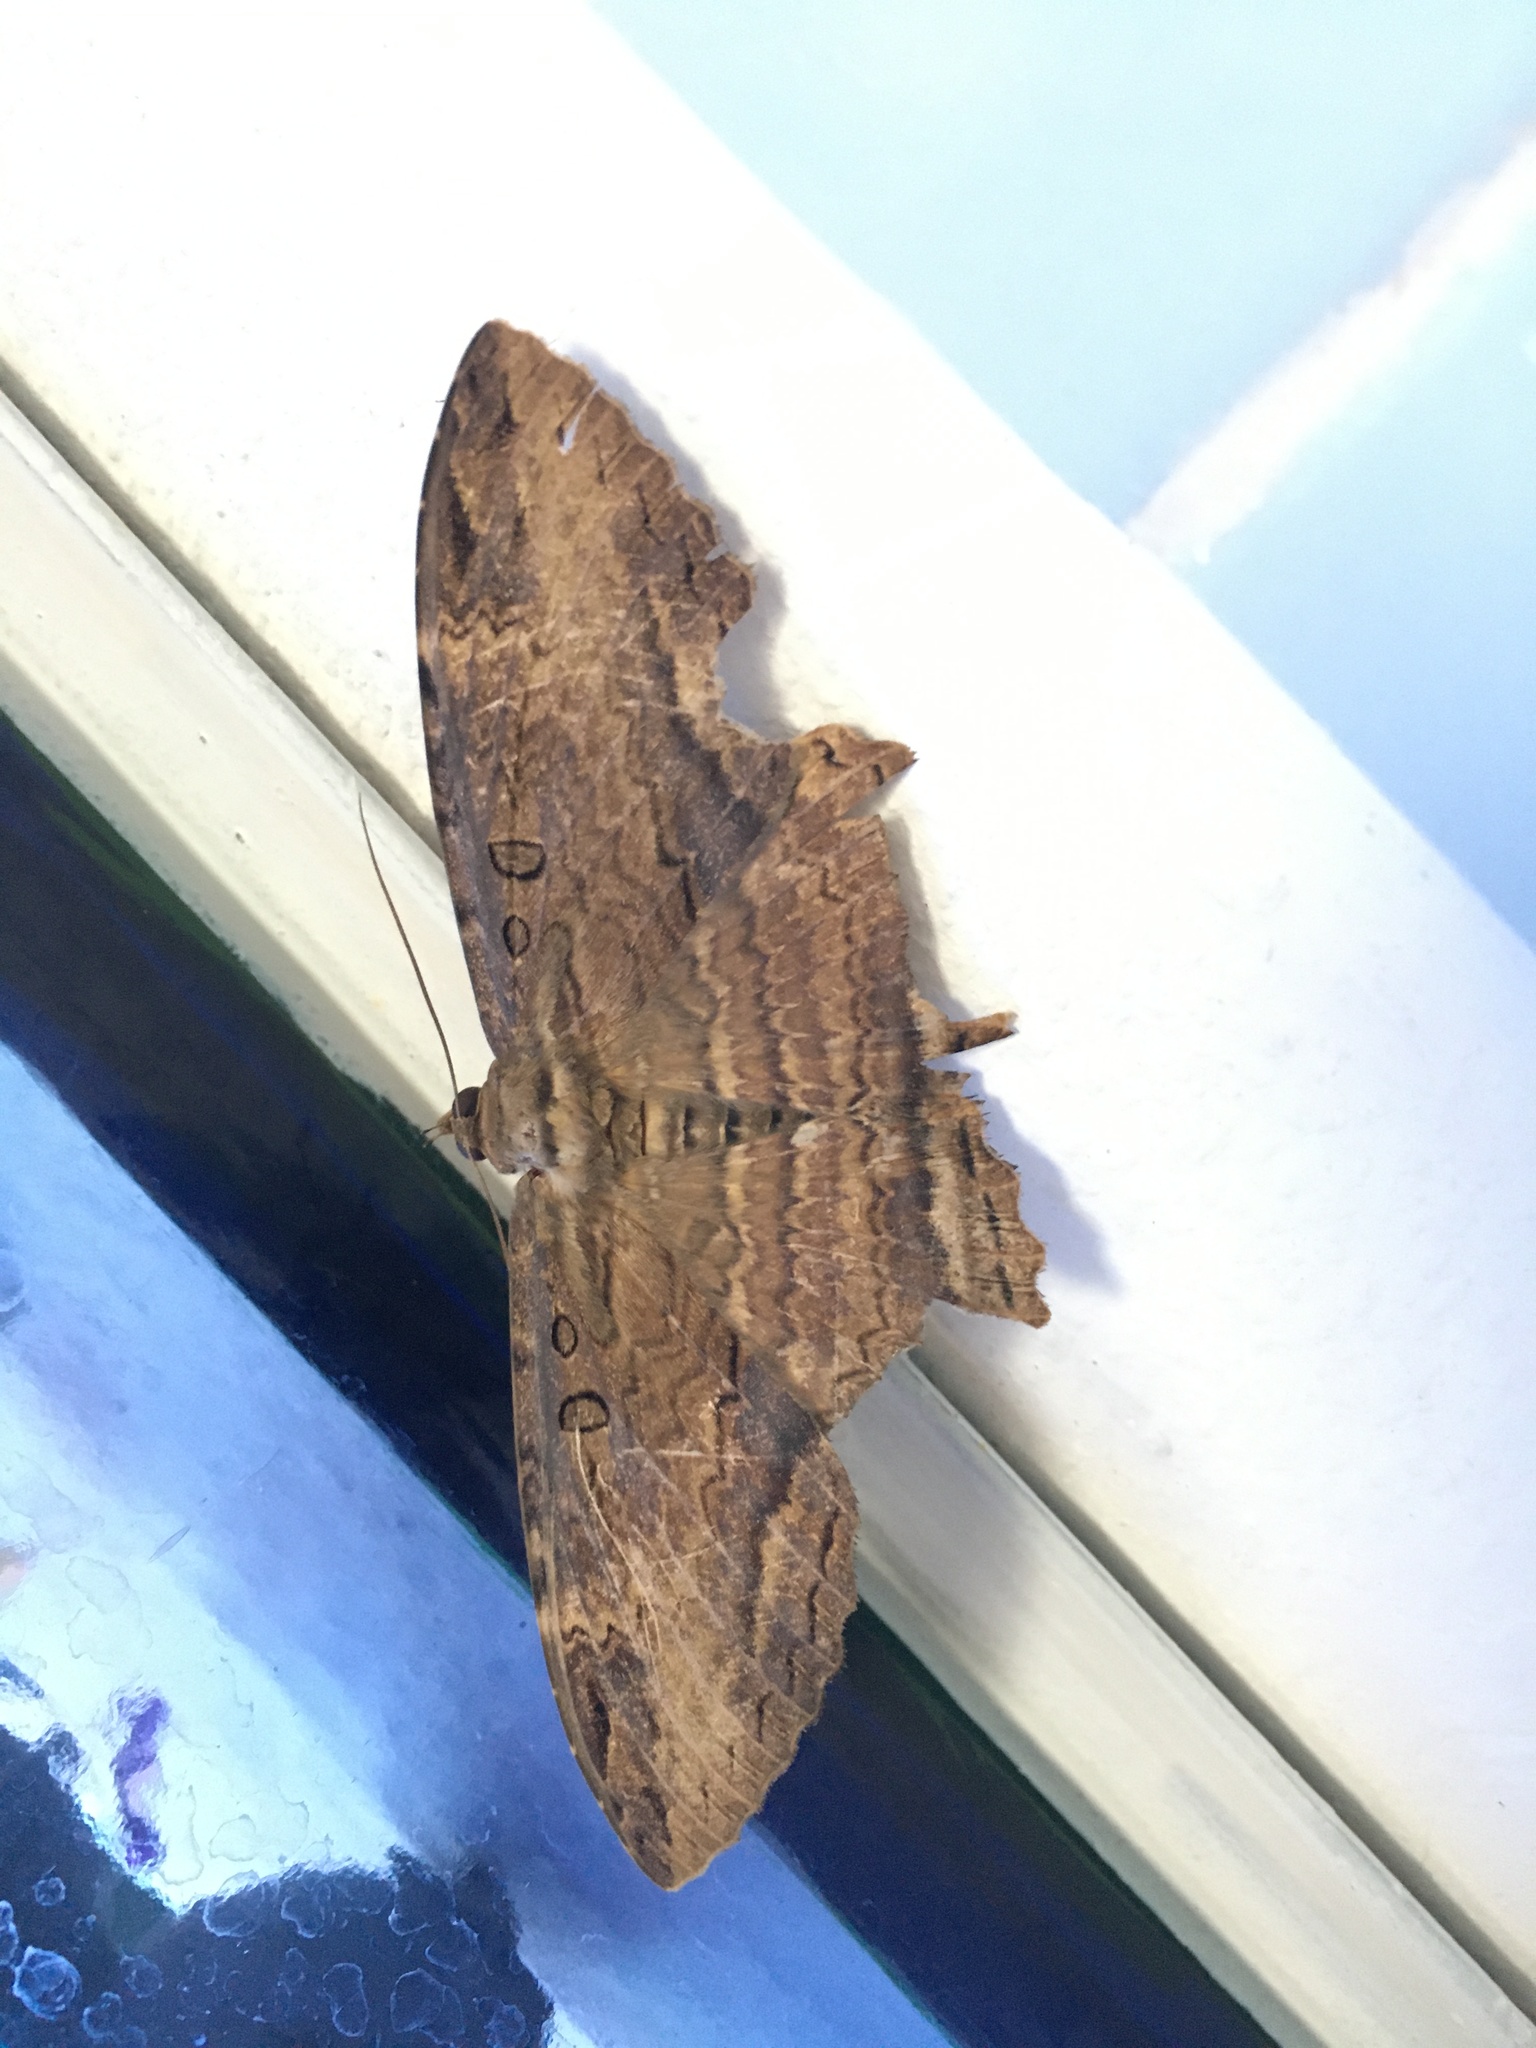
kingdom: Animalia
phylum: Arthropoda
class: Insecta
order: Lepidoptera
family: Erebidae
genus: Feigeria
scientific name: Feigeria buteo
